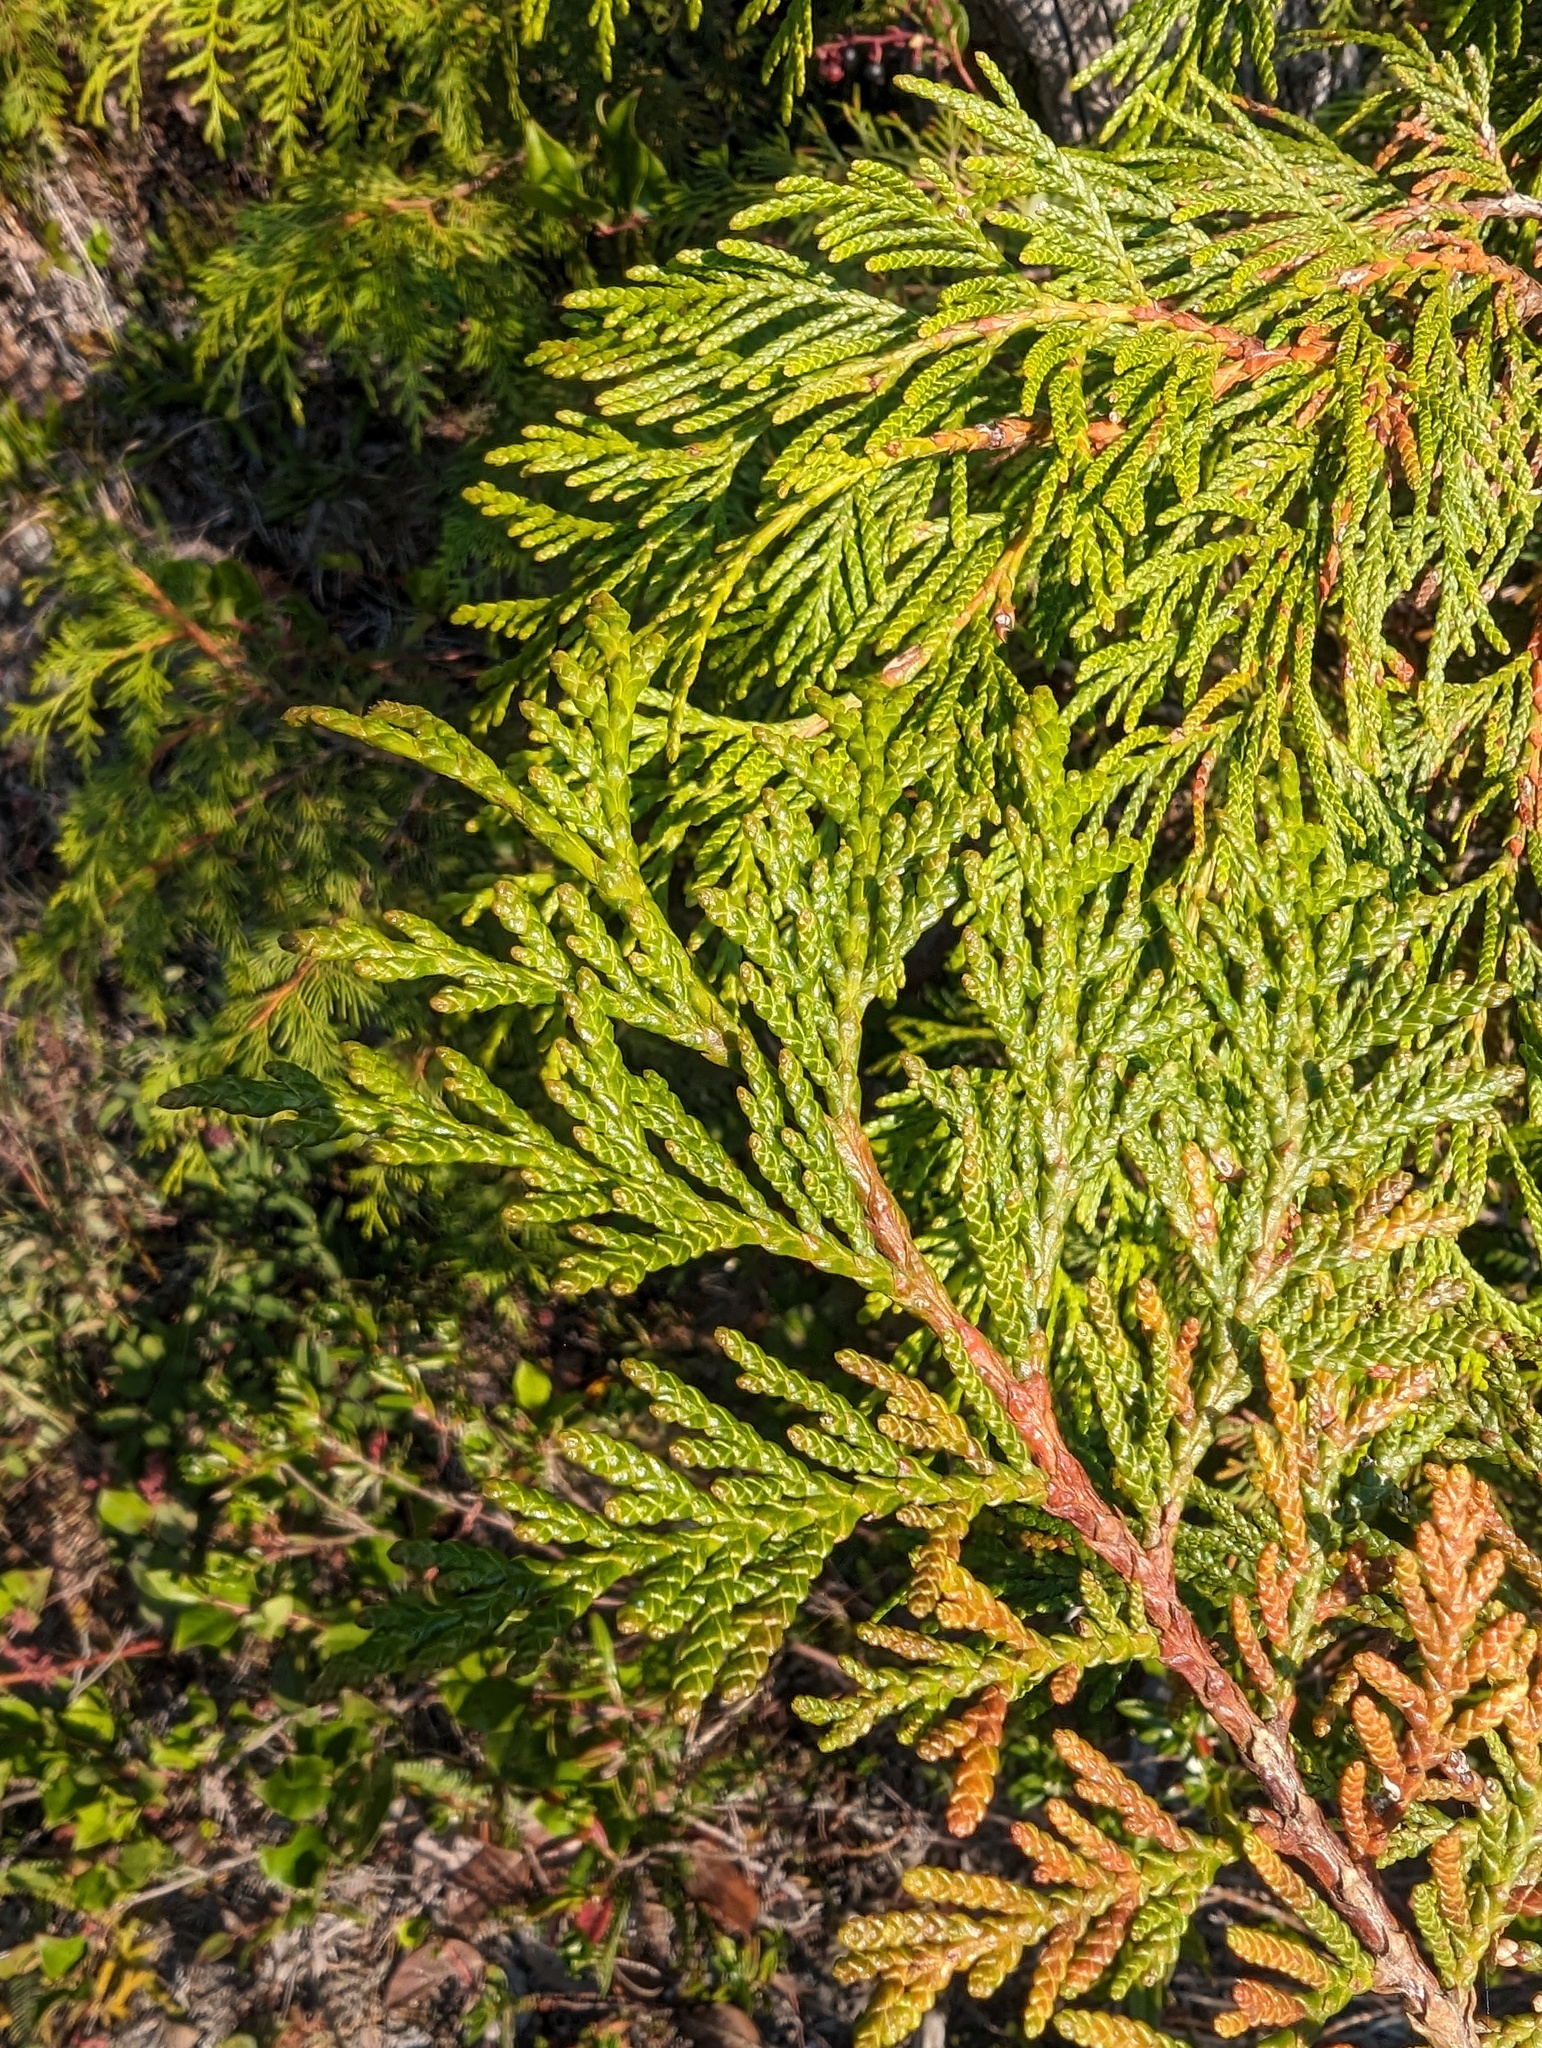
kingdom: Plantae
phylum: Tracheophyta
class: Pinopsida
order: Pinales
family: Cupressaceae
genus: Thuja
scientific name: Thuja plicata
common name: Western red-cedar
